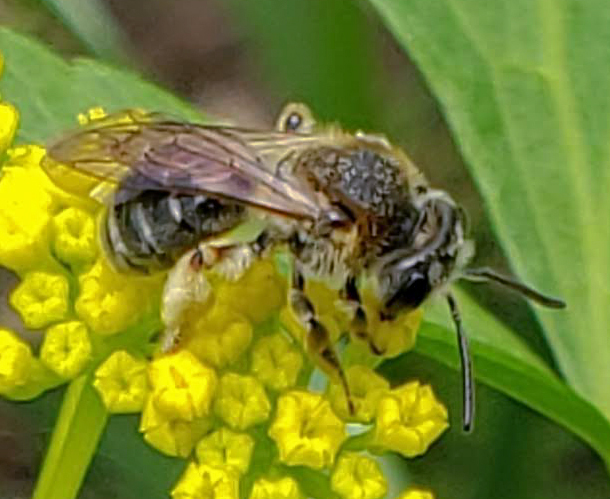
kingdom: Animalia
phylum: Arthropoda
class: Insecta
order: Hymenoptera
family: Andrenidae
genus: Andrena
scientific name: Andrena
